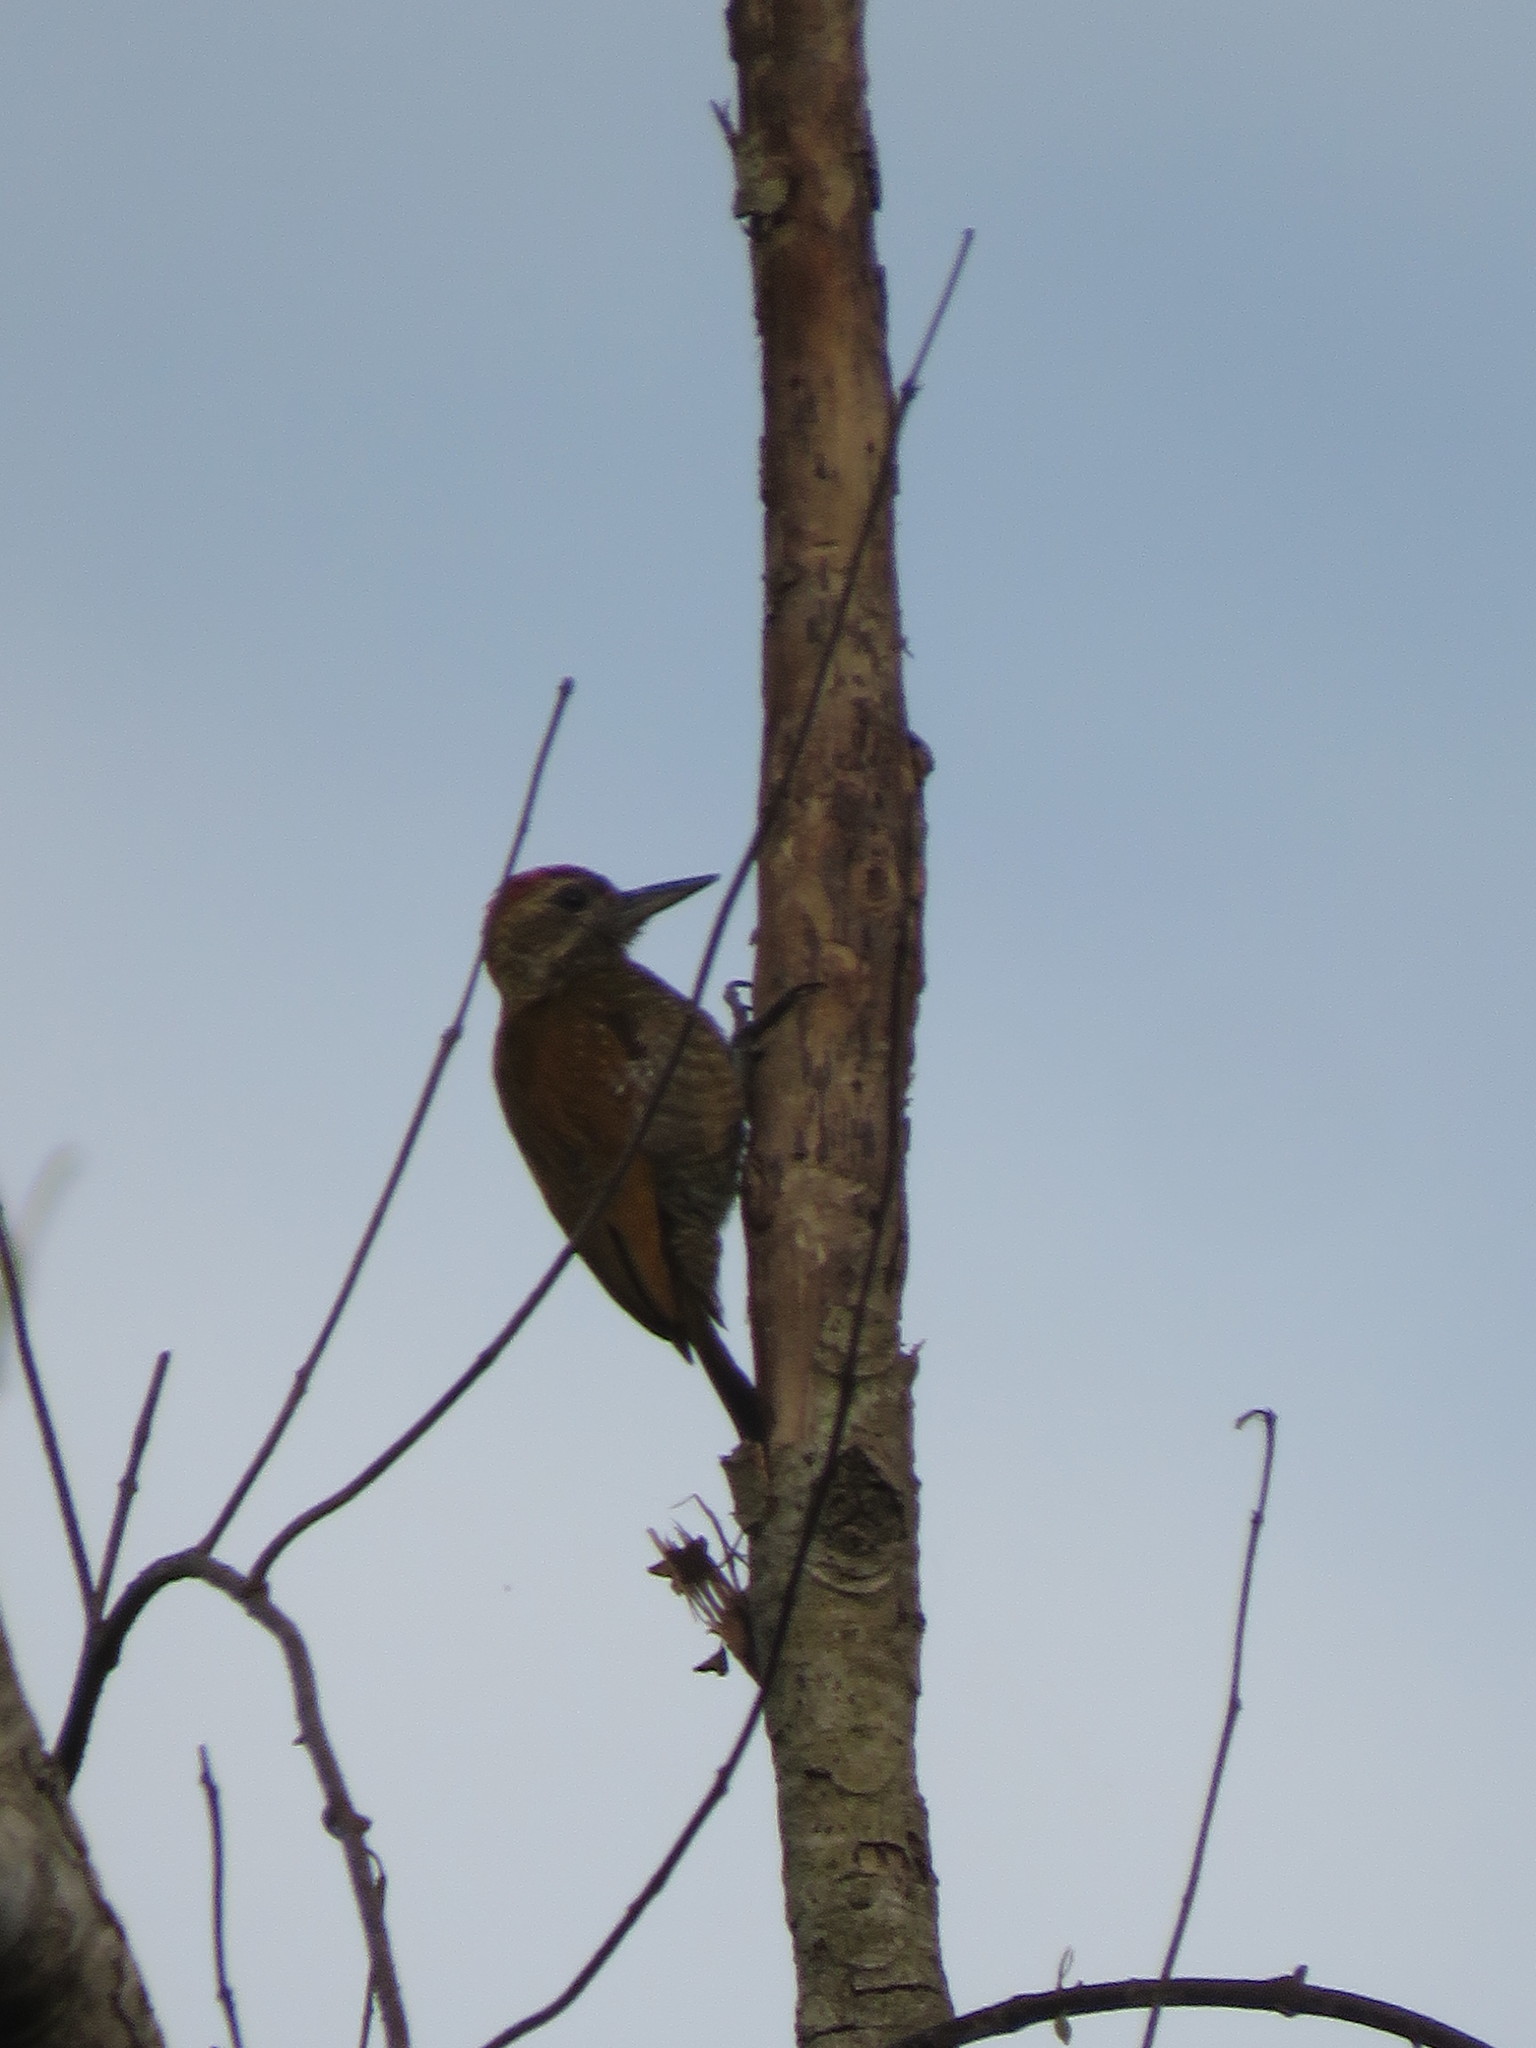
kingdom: Animalia
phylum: Chordata
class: Aves
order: Piciformes
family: Picidae
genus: Veniliornis
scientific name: Veniliornis passerinus
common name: Little woodpecker
